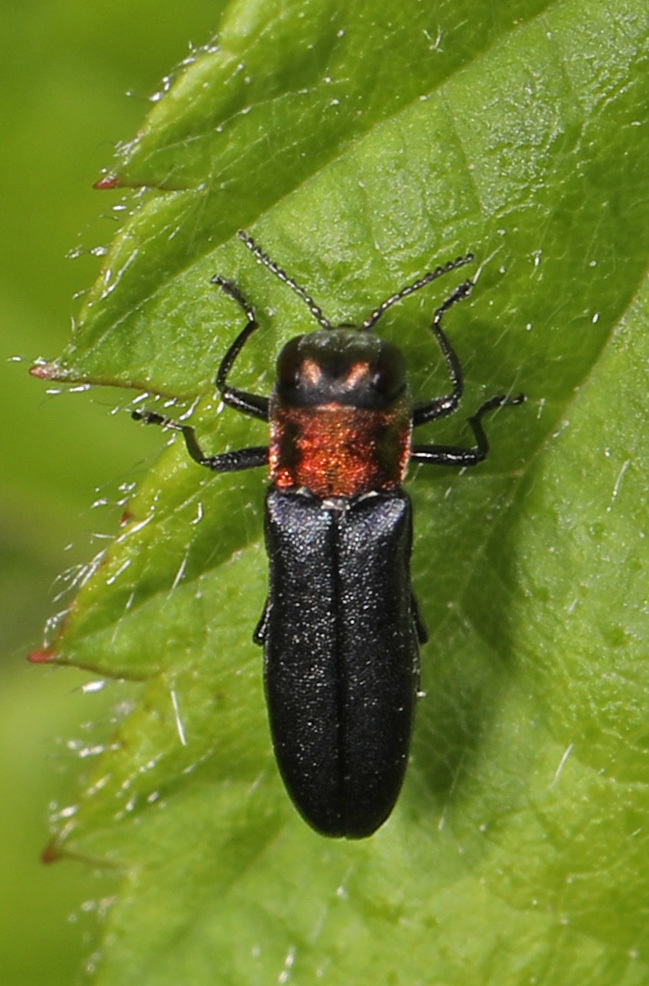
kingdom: Animalia
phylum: Arthropoda
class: Insecta
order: Coleoptera
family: Buprestidae
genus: Agrilus
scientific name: Agrilus ruficollis
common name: Red-necked cane borer beetle
